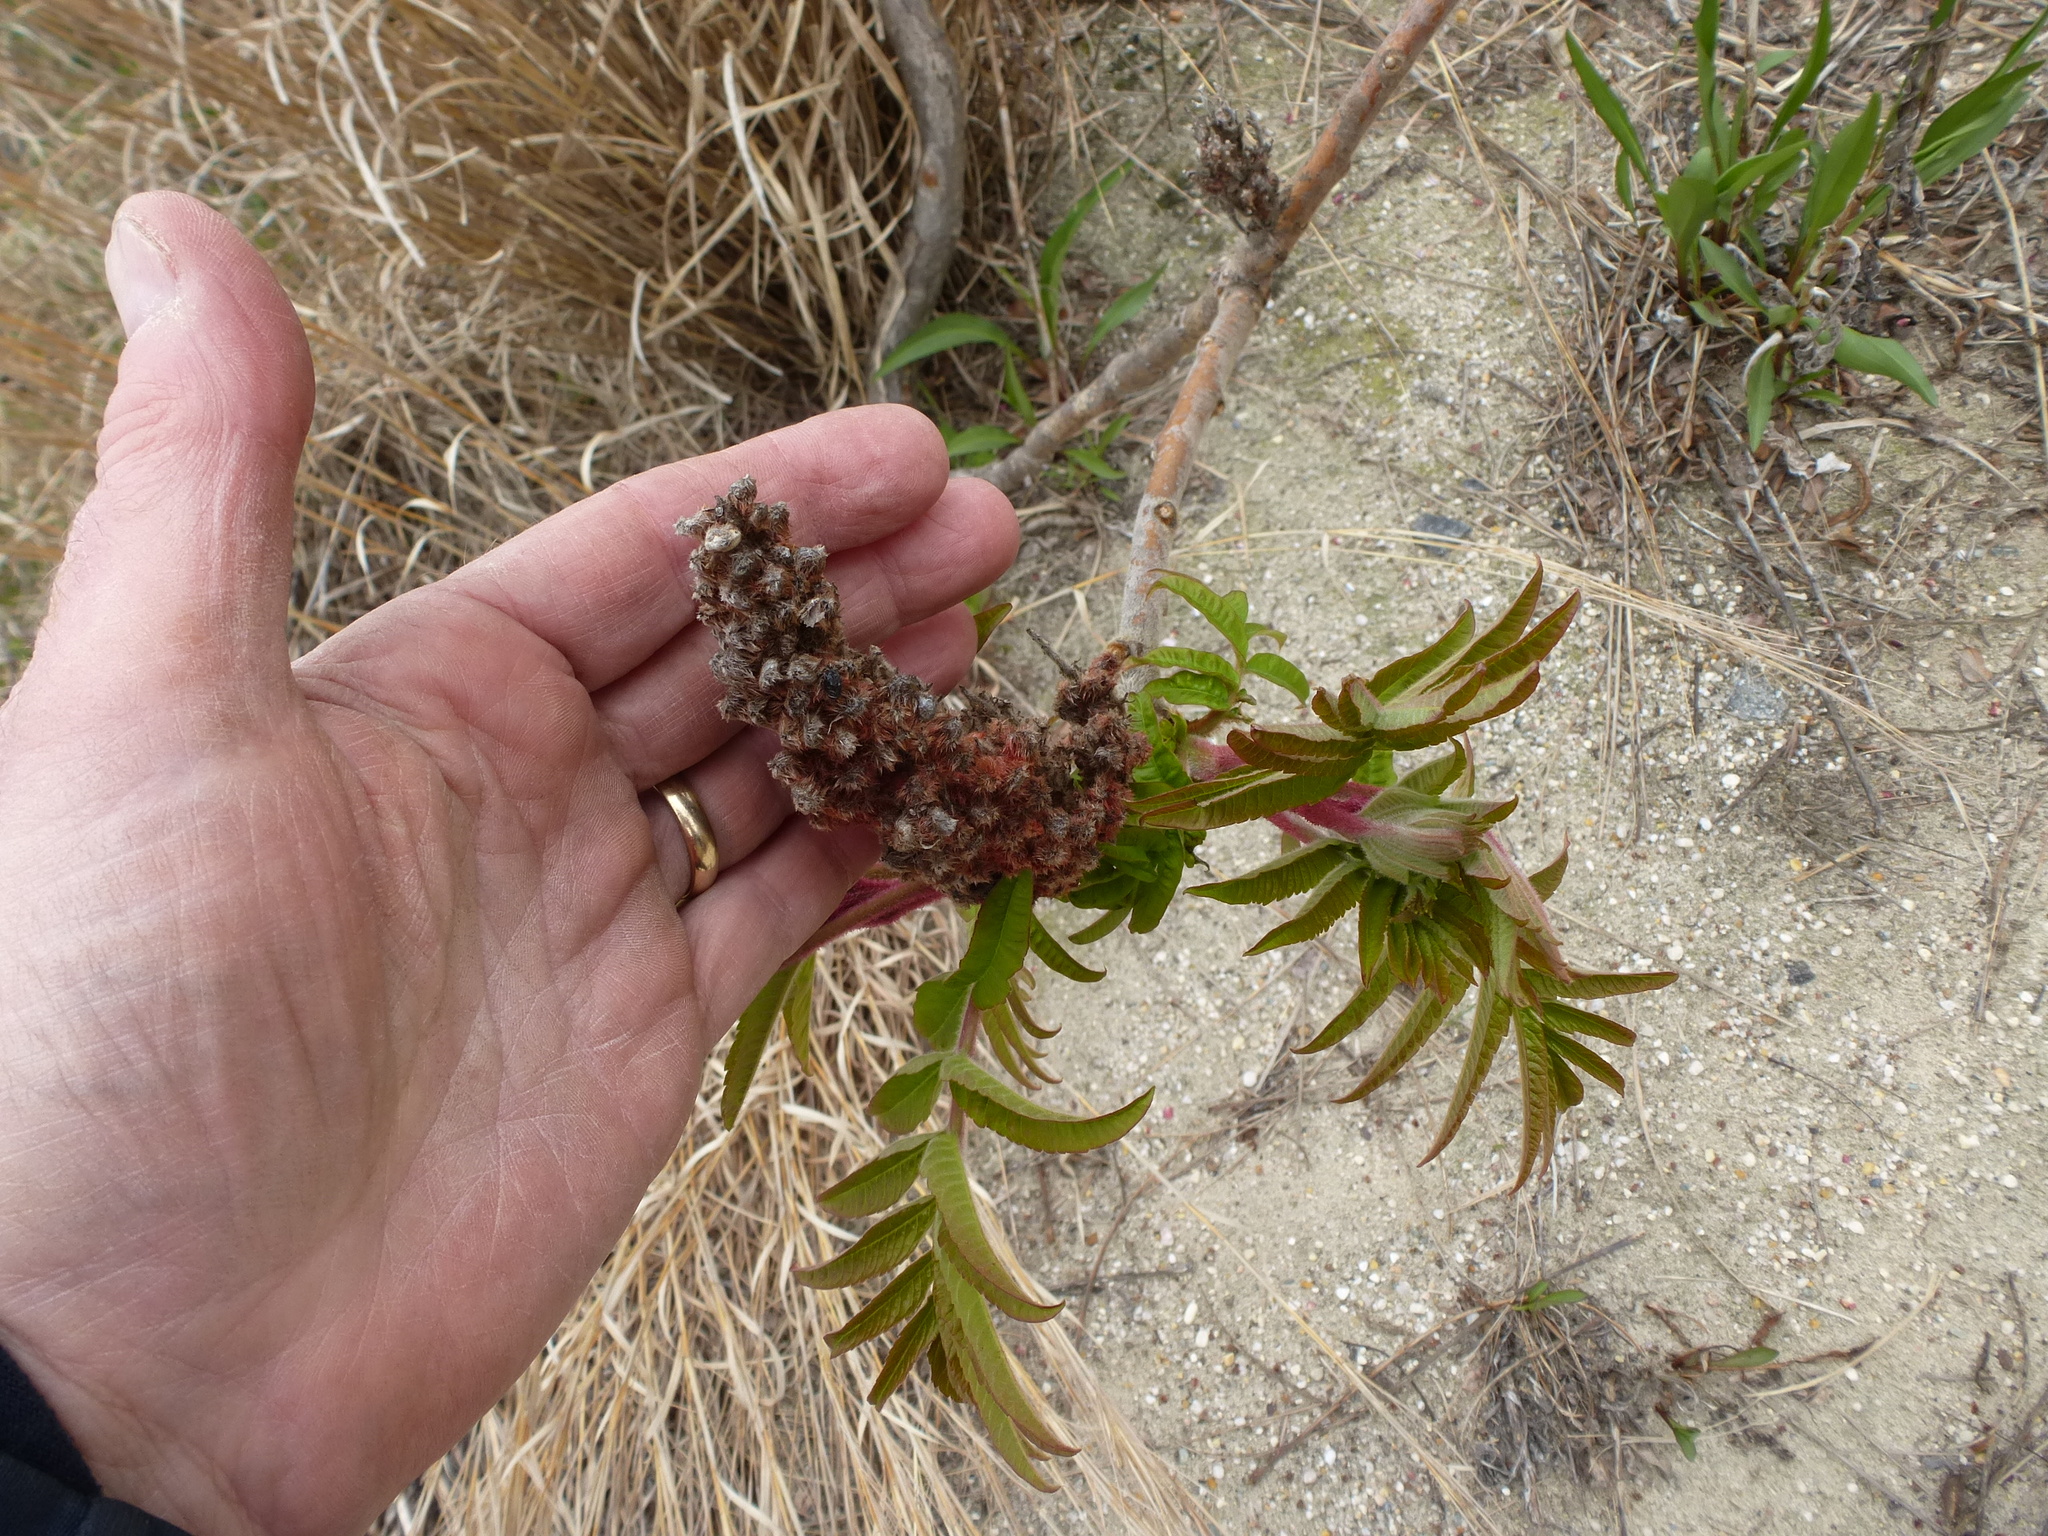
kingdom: Plantae
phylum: Tracheophyta
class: Magnoliopsida
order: Sapindales
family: Anacardiaceae
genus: Rhus
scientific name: Rhus typhina
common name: Staghorn sumac
